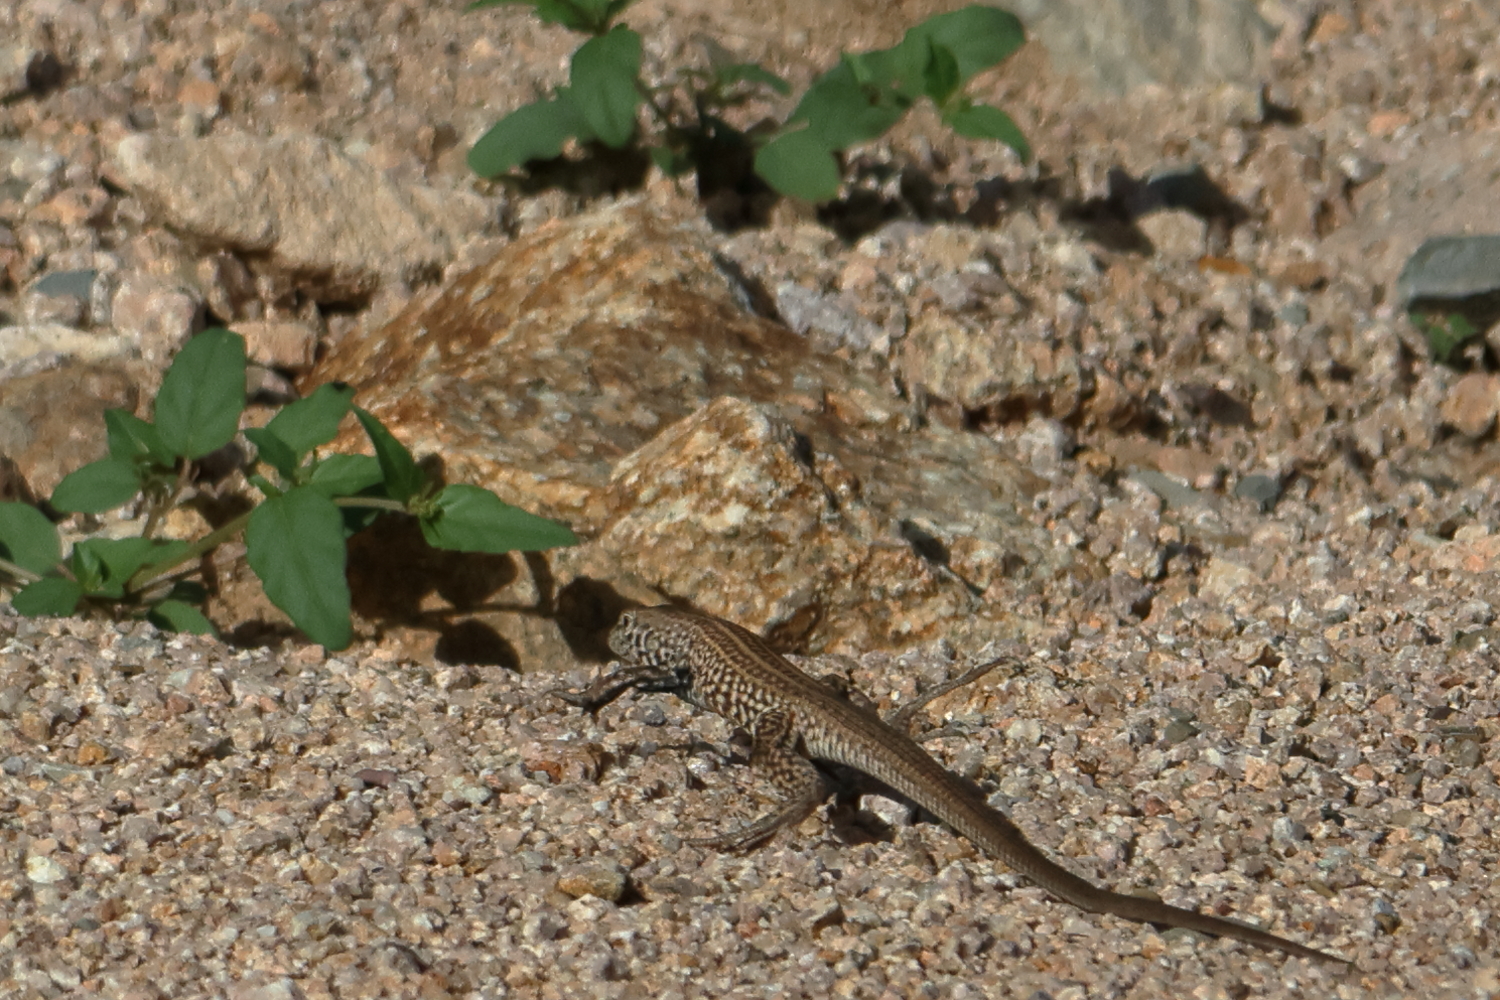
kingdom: Animalia
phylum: Chordata
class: Squamata
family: Teiidae
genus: Aspidoscelis
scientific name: Aspidoscelis tigris
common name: Tiger whiptail
